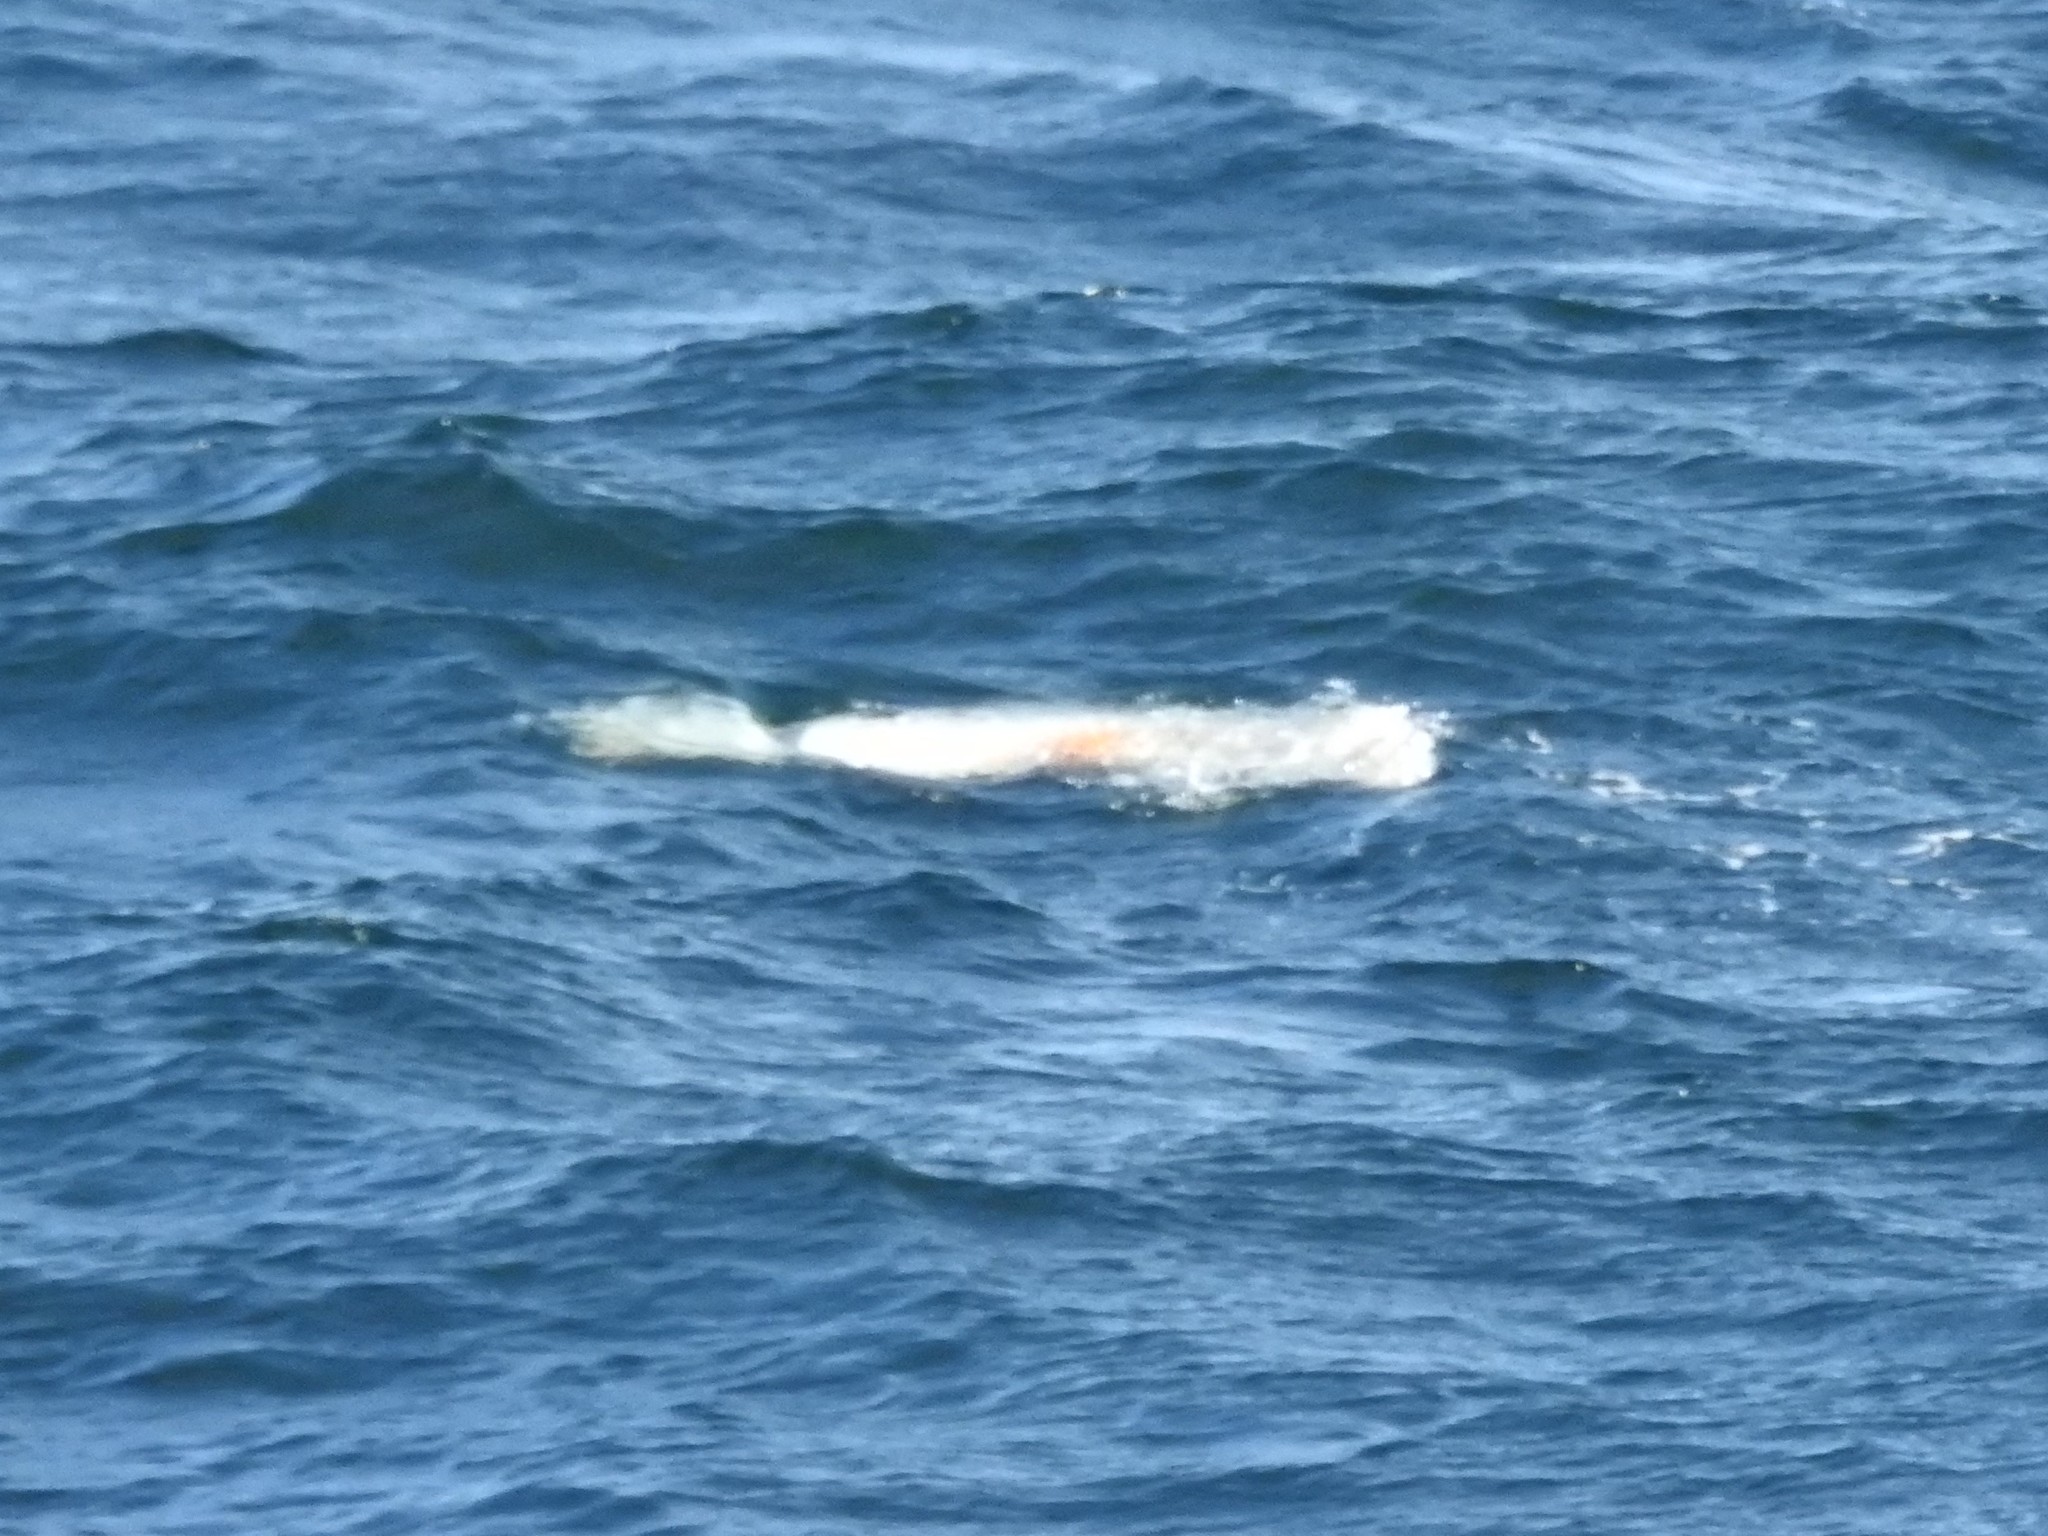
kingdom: Animalia
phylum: Chordata
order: Tetraodontiformes
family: Molidae
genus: Mola
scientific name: Mola mola
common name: Ocean sunfish
